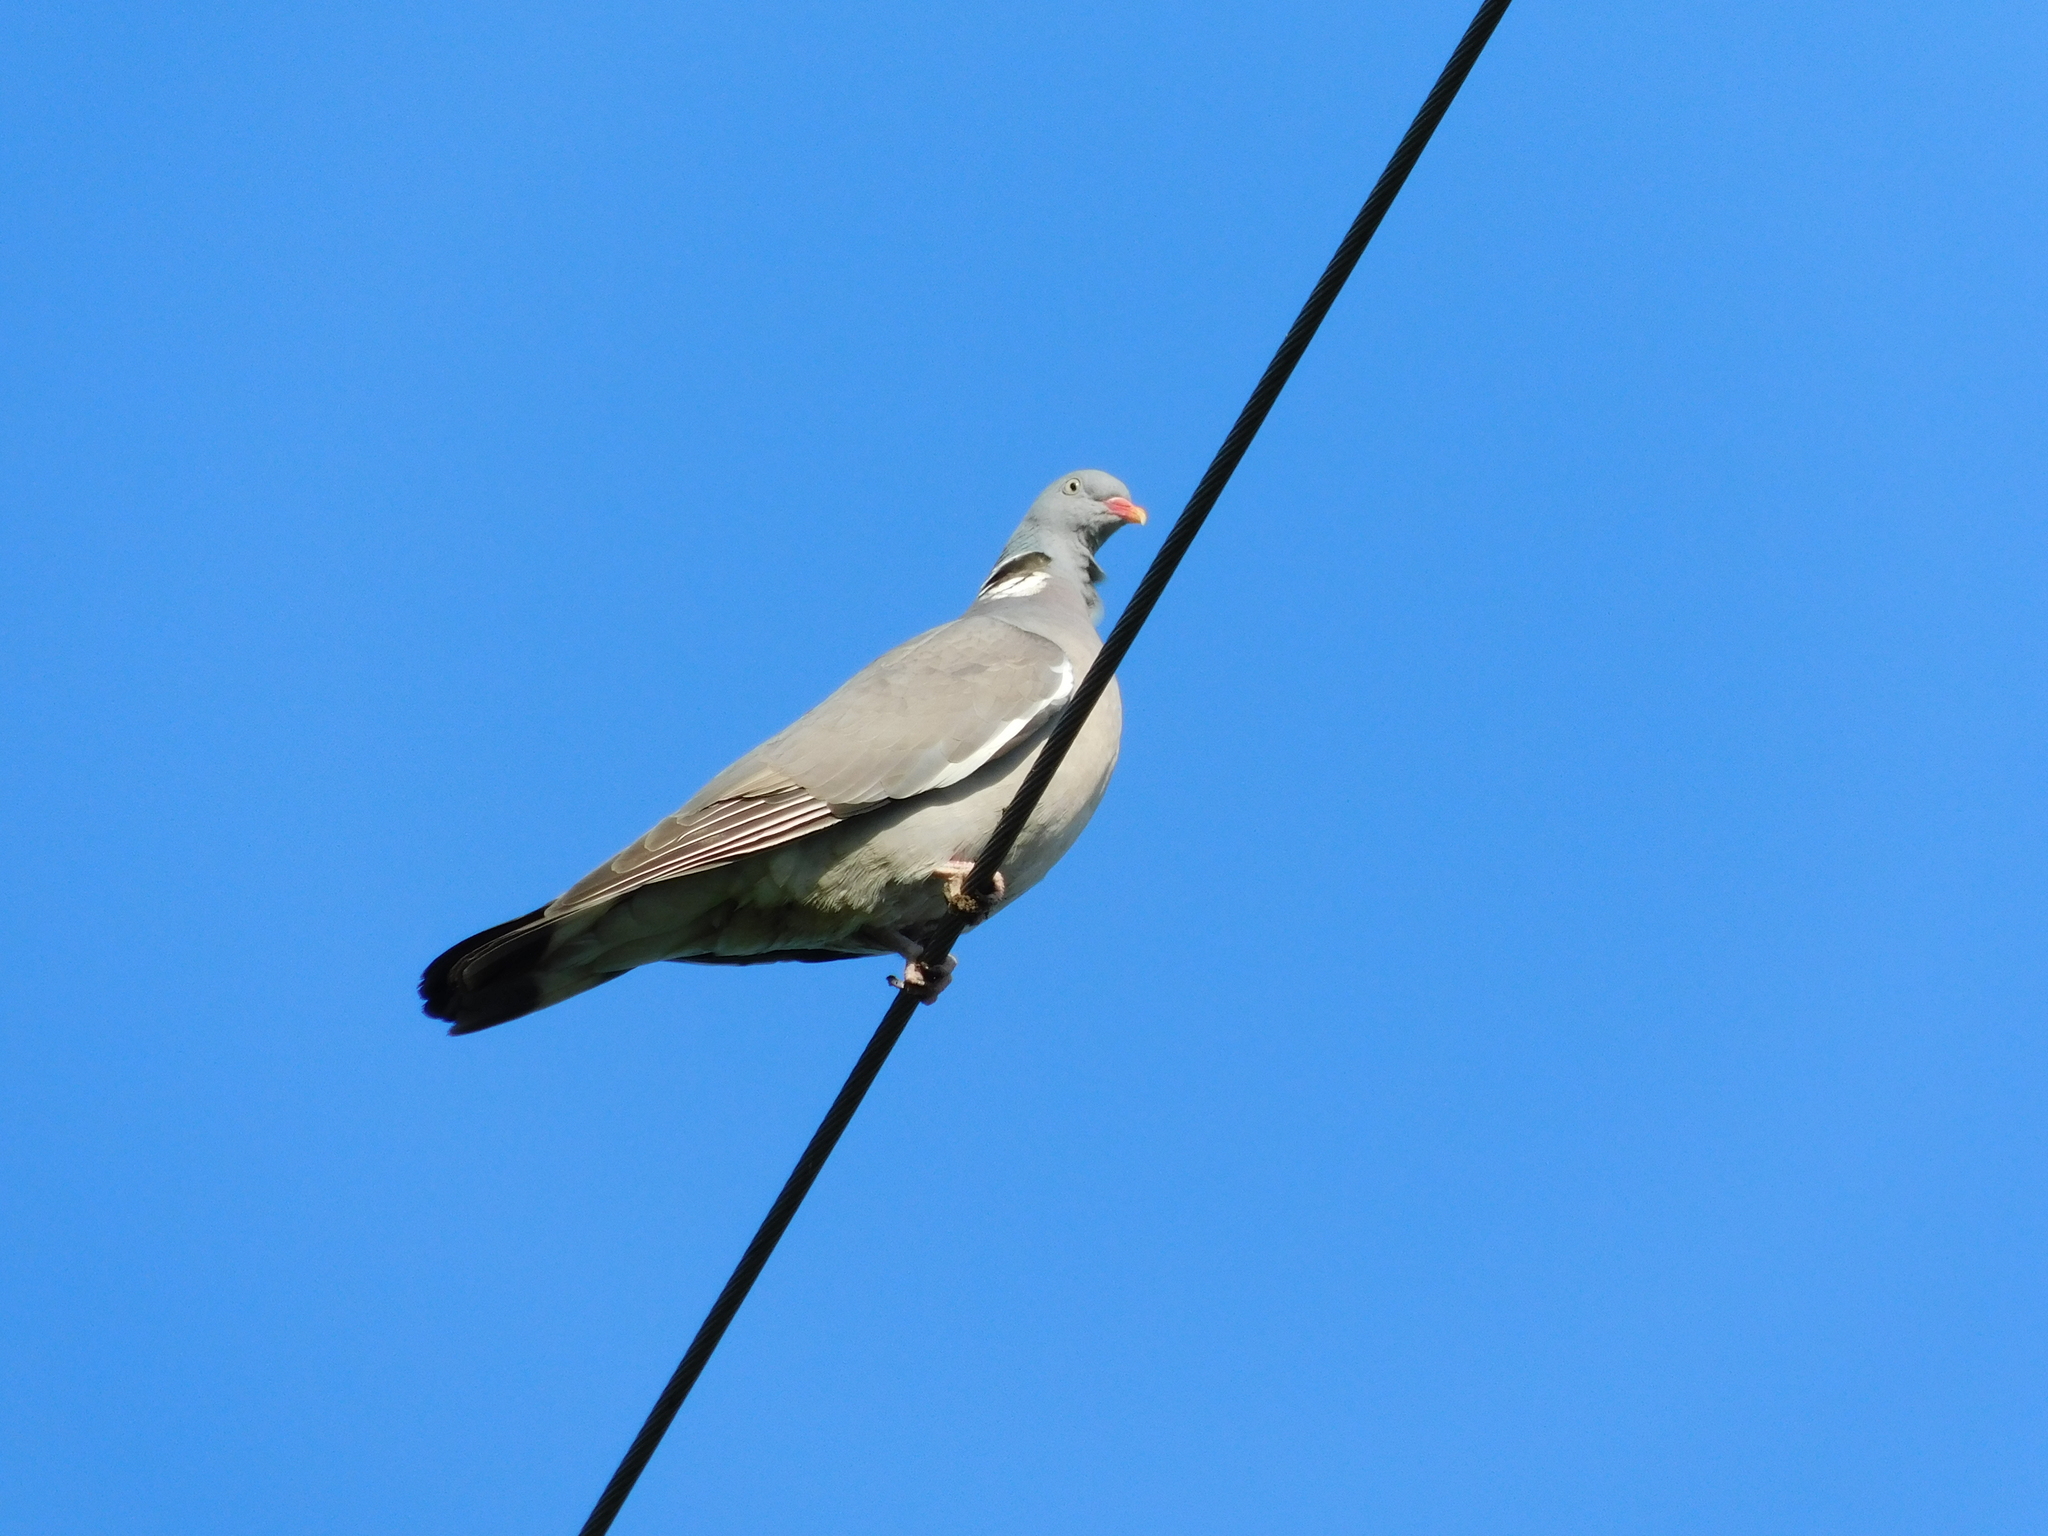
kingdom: Animalia
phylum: Chordata
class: Aves
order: Columbiformes
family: Columbidae
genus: Columba
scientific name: Columba palumbus
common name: Common wood pigeon
